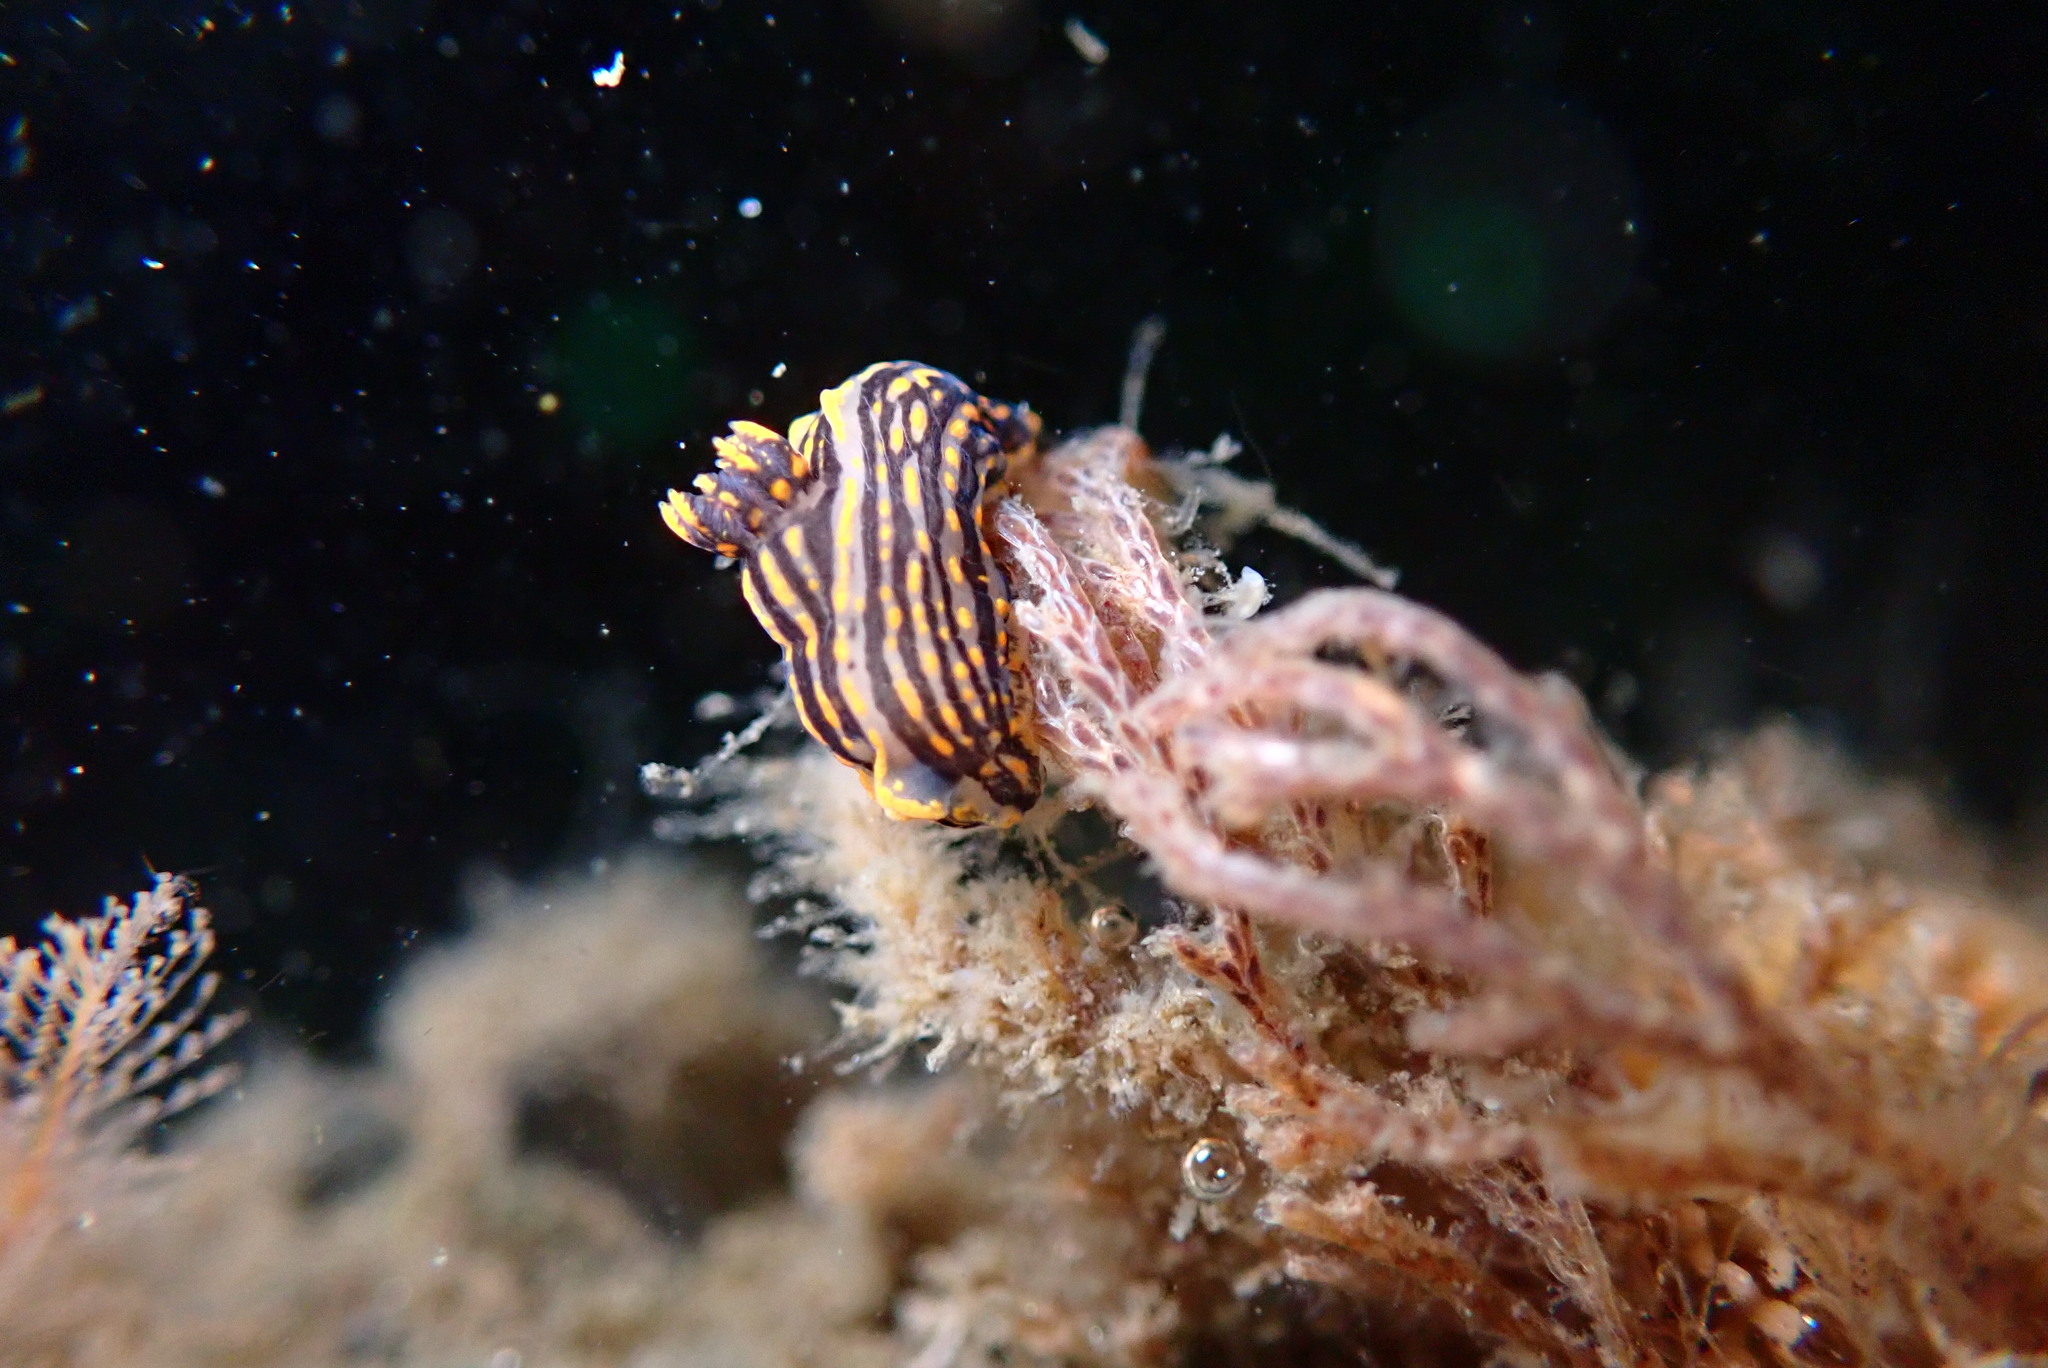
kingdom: Animalia
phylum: Mollusca
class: Gastropoda
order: Nudibranchia
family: Polyceridae
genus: Polycera
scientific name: Polycera atra
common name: Orange-spike polycera
